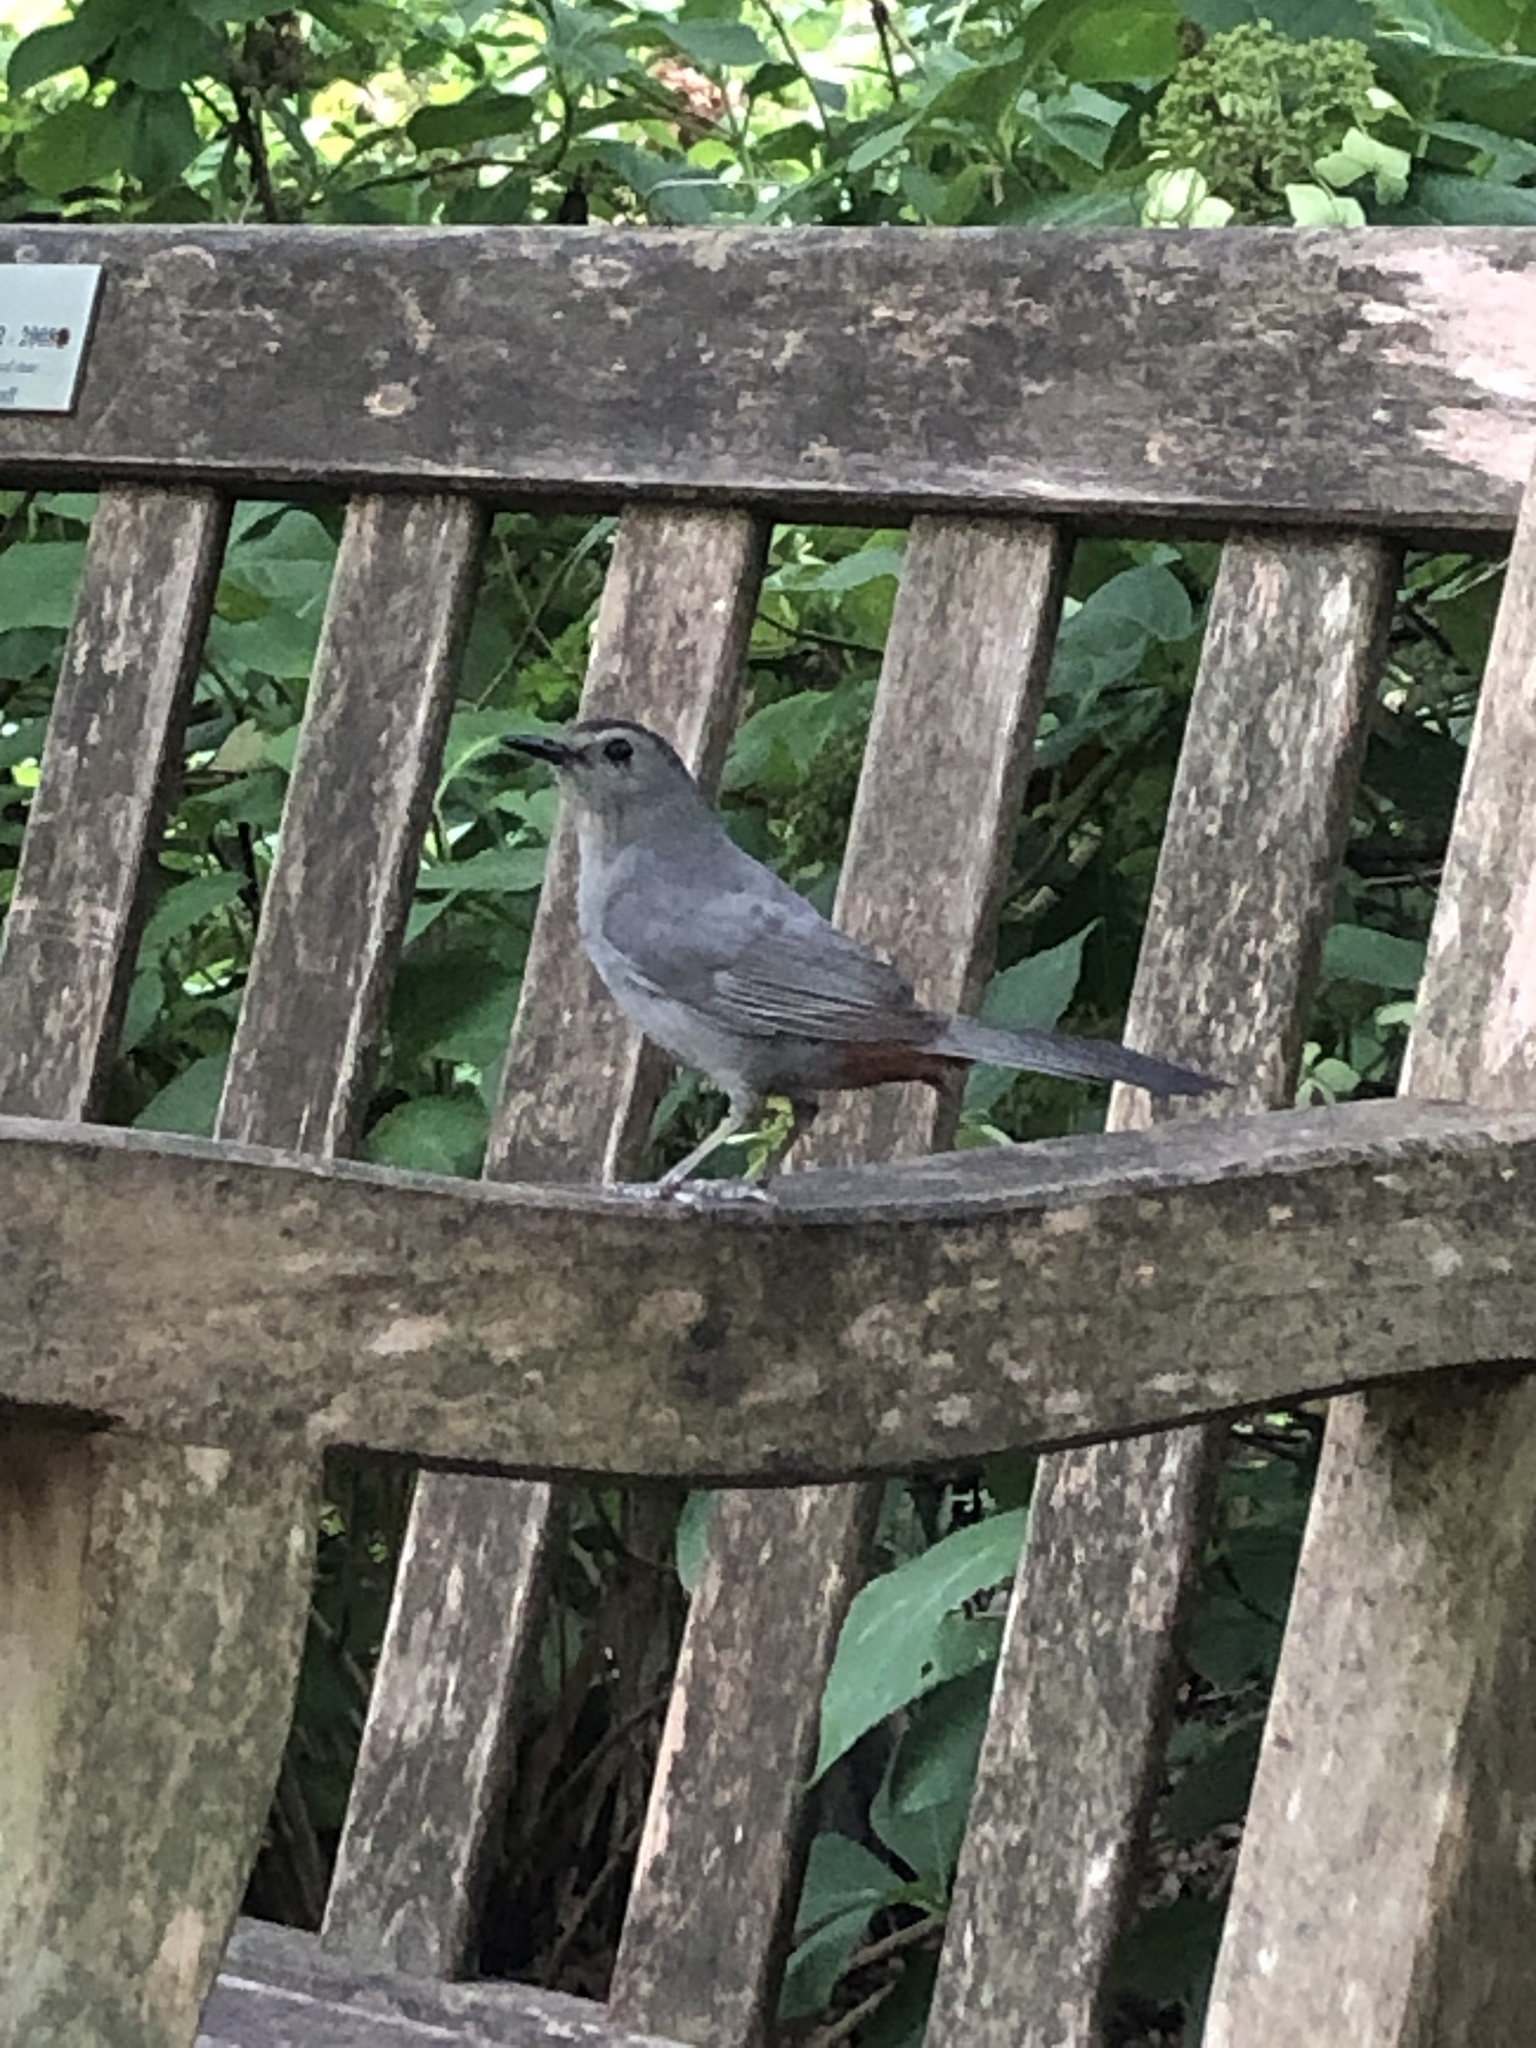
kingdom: Animalia
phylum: Chordata
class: Aves
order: Passeriformes
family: Mimidae
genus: Dumetella
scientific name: Dumetella carolinensis
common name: Gray catbird
